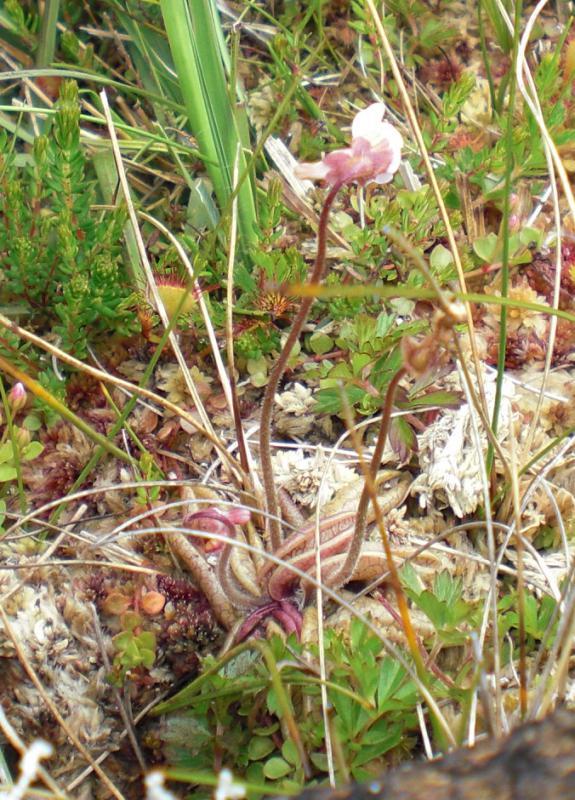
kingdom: Plantae
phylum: Tracheophyta
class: Magnoliopsida
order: Lamiales
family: Lentibulariaceae
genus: Pinguicula
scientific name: Pinguicula lusitanica
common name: Pale butterwort
